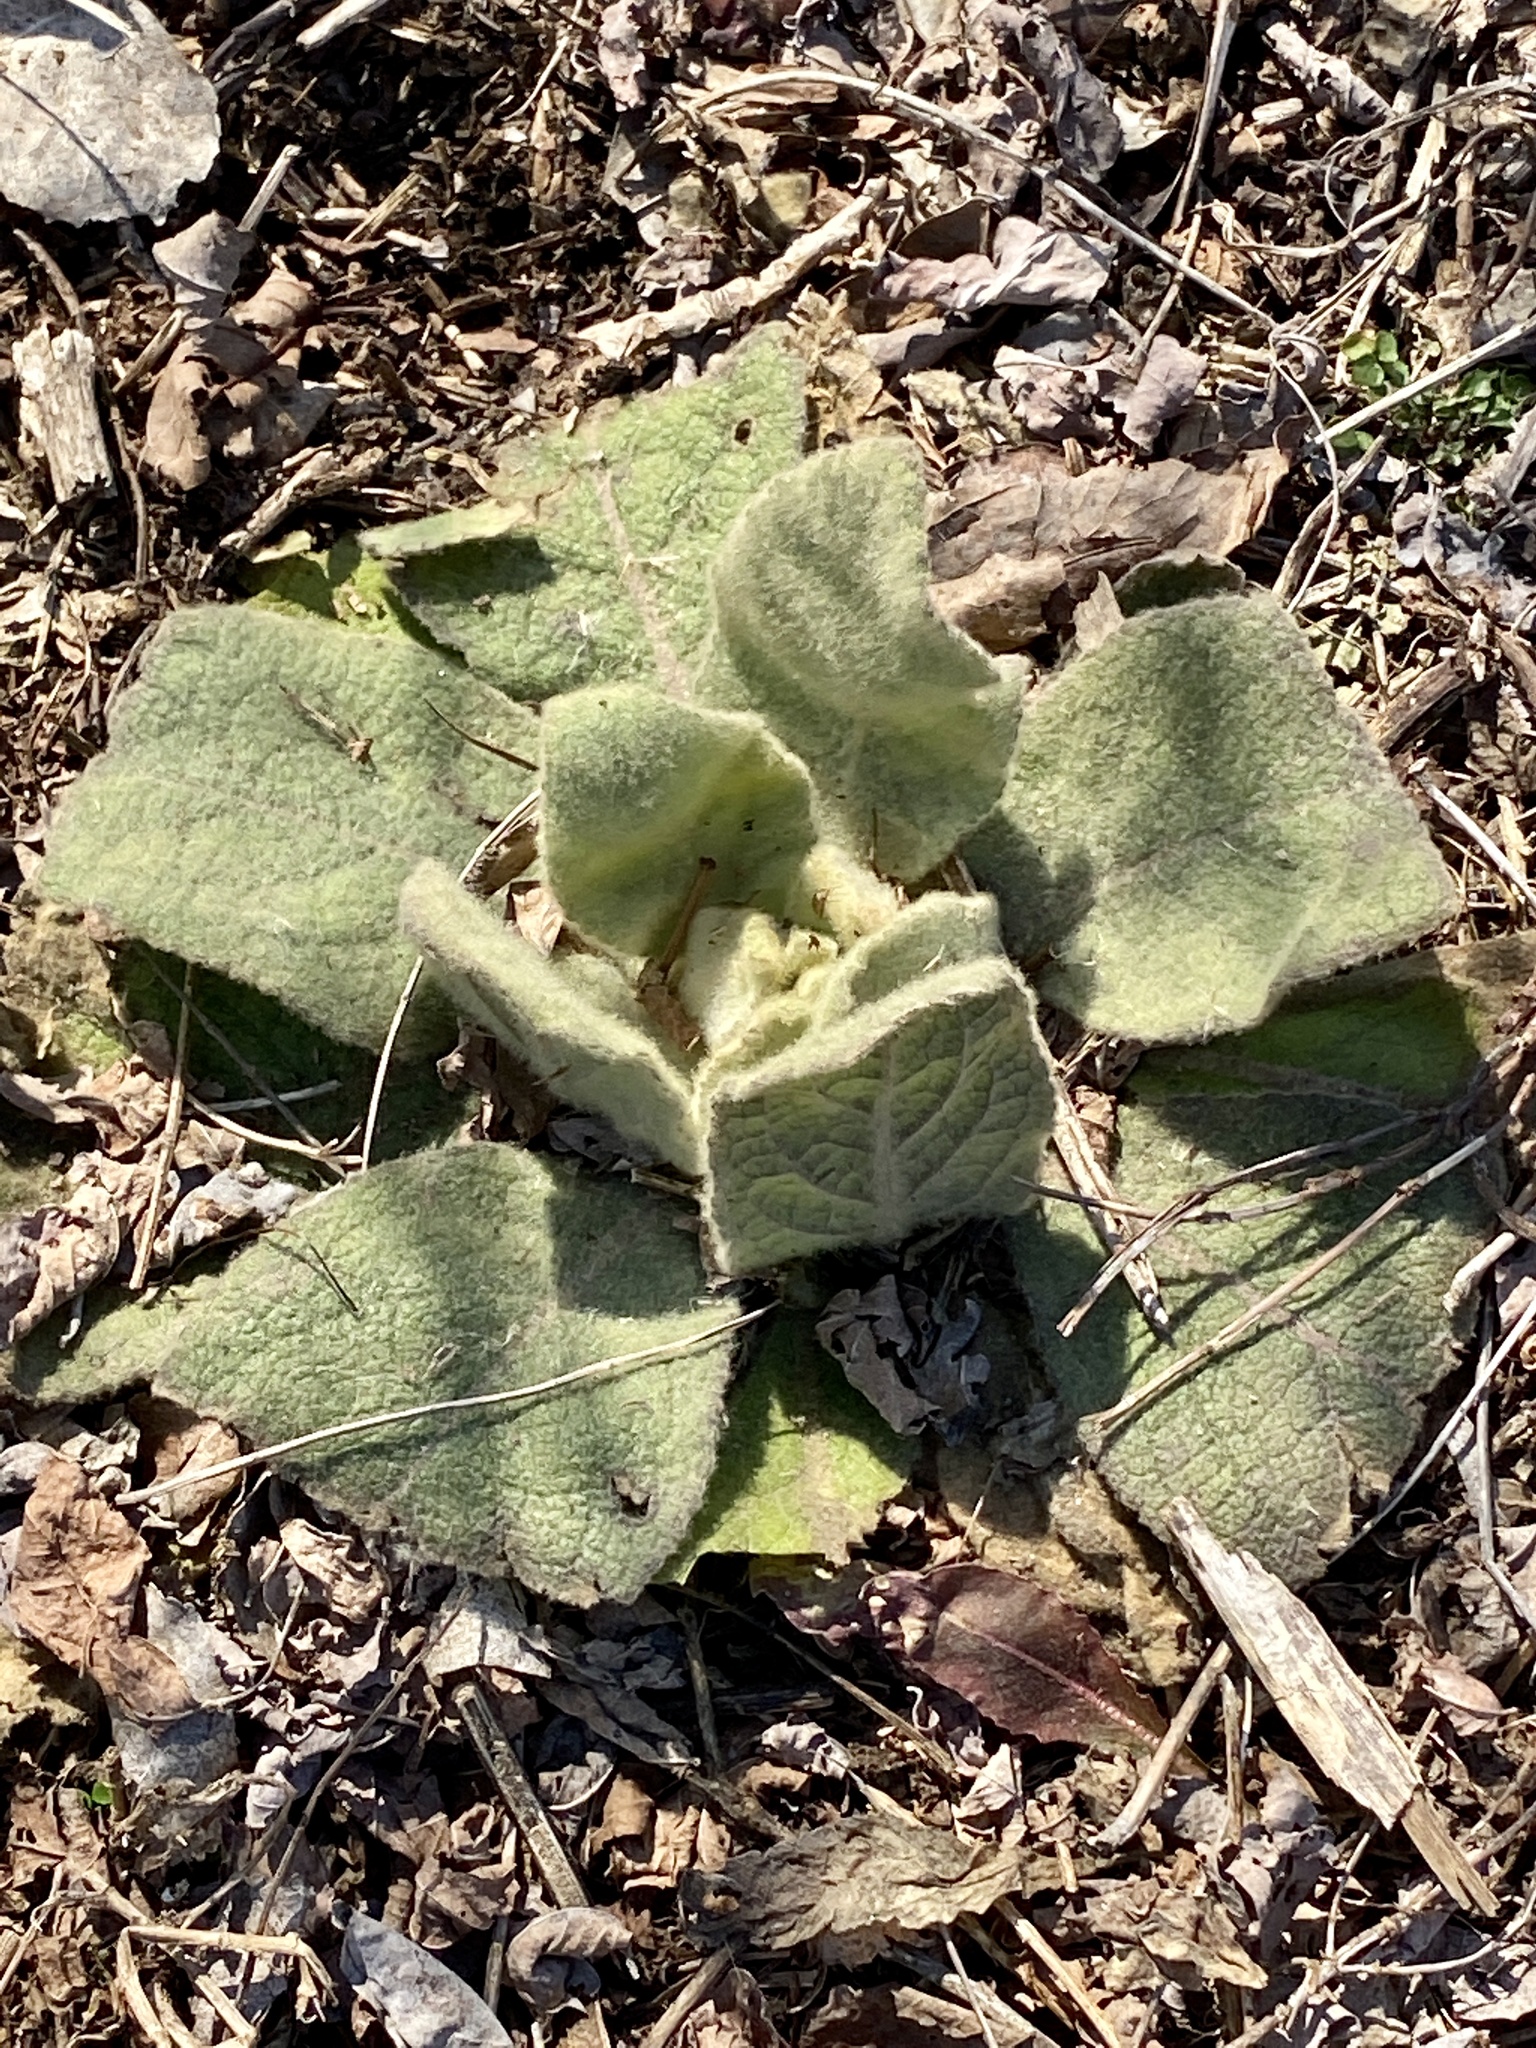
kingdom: Plantae
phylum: Tracheophyta
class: Magnoliopsida
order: Lamiales
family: Scrophulariaceae
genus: Verbascum
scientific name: Verbascum thapsus
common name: Common mullein
